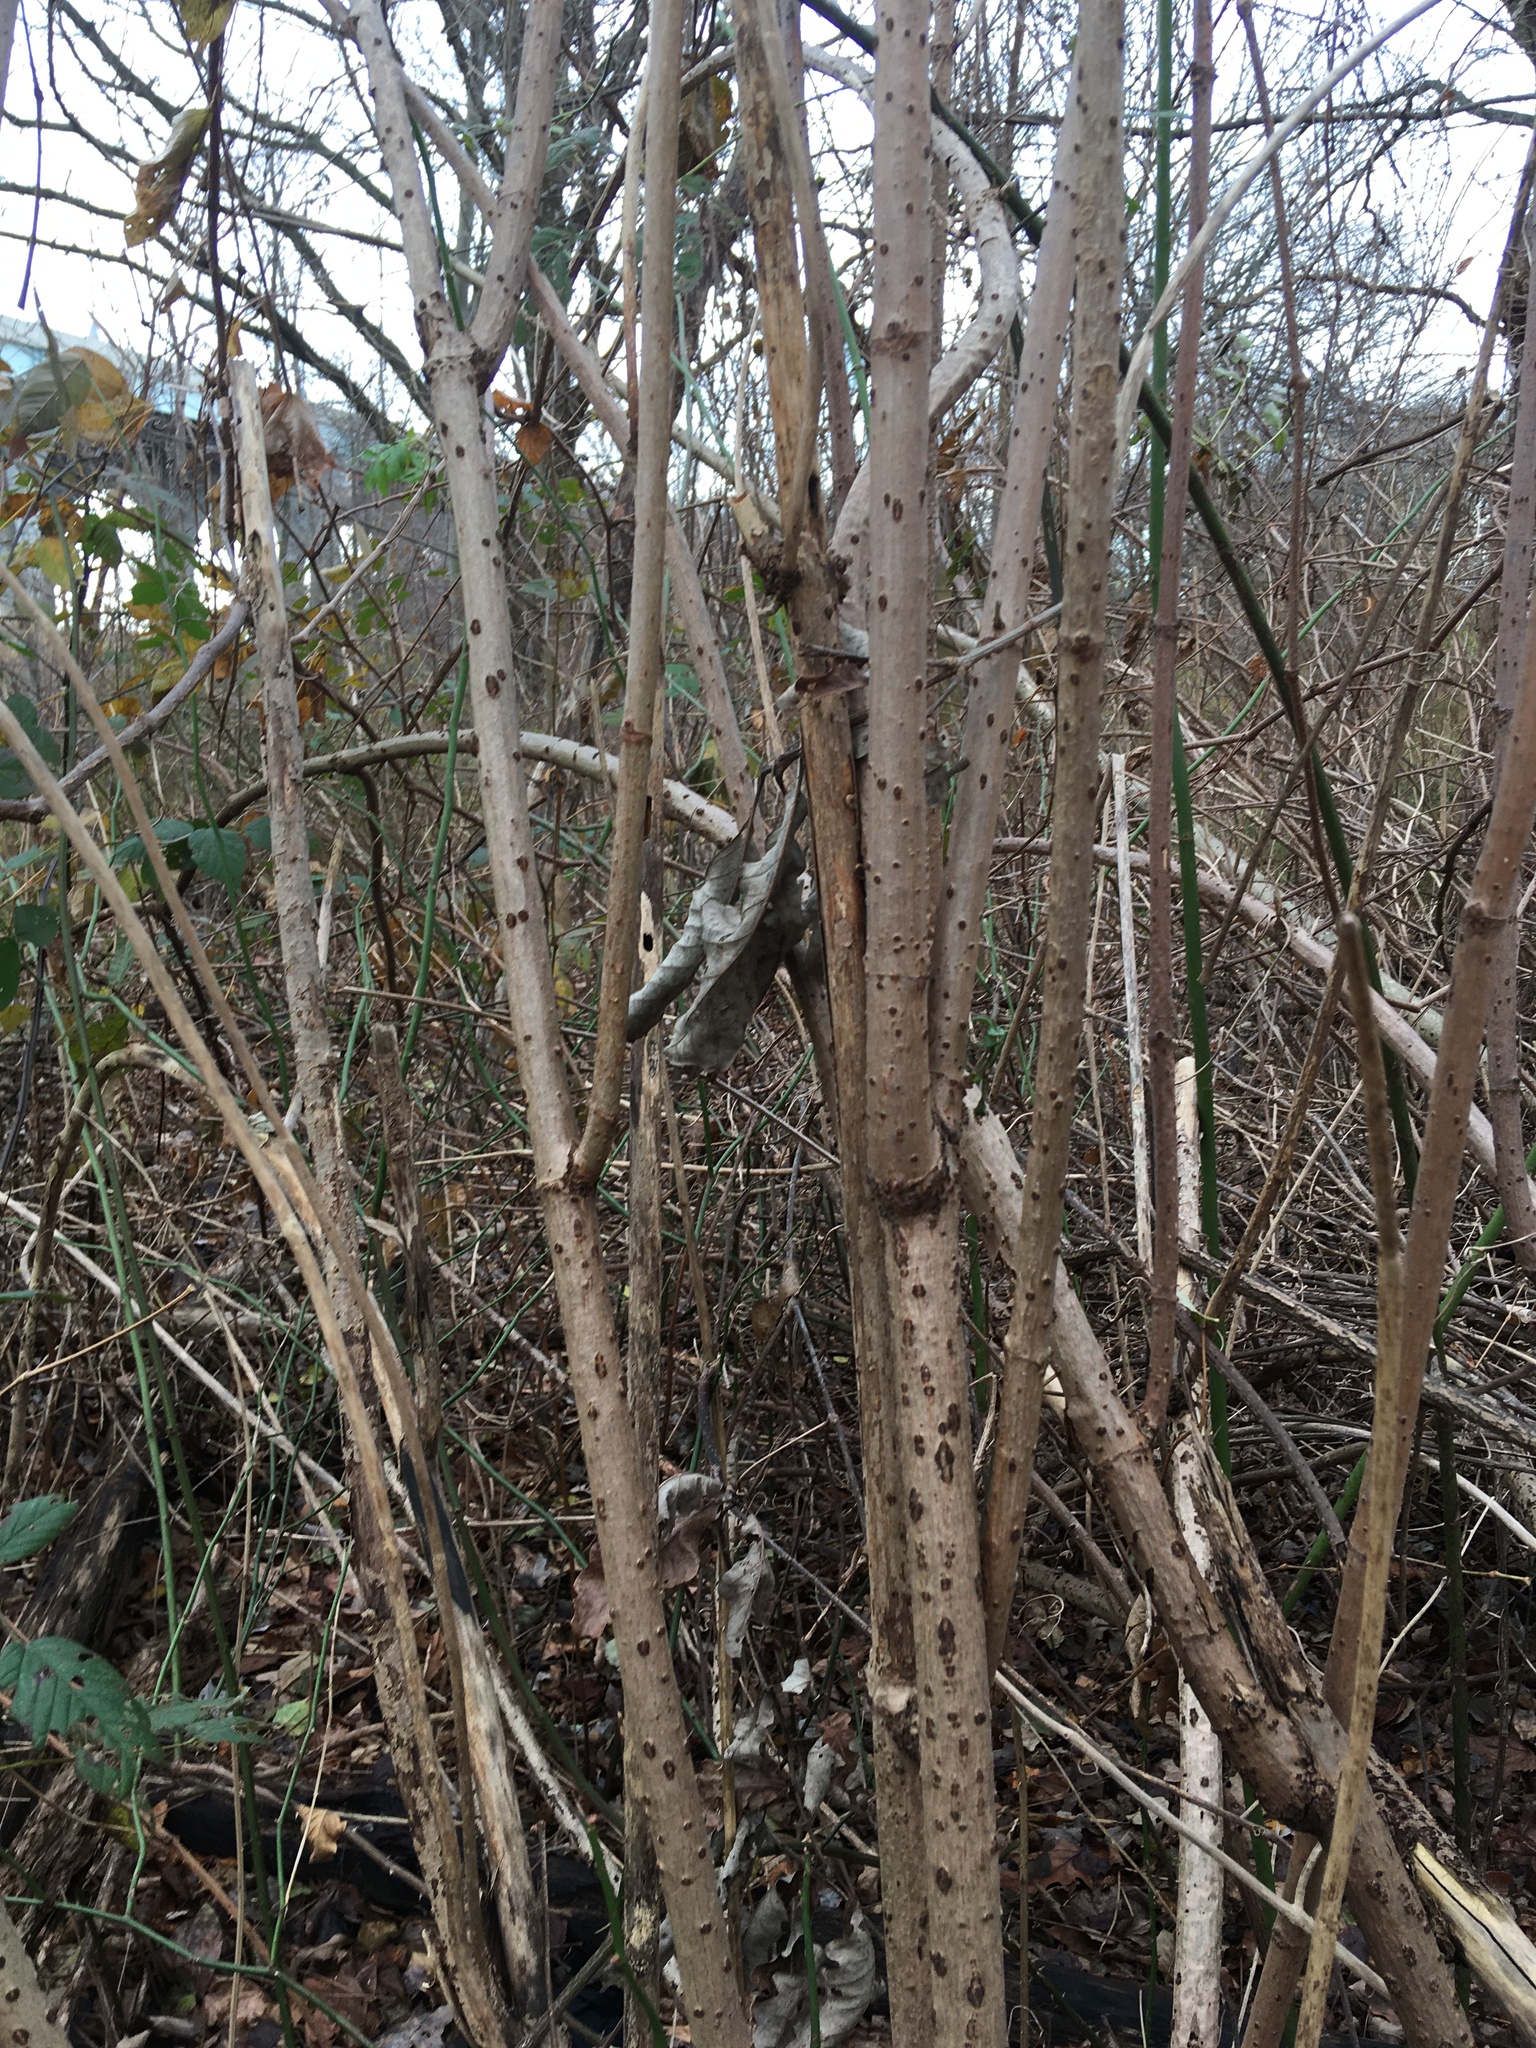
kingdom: Plantae
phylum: Tracheophyta
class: Magnoliopsida
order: Dipsacales
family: Viburnaceae
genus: Sambucus
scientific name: Sambucus canadensis
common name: American elder
